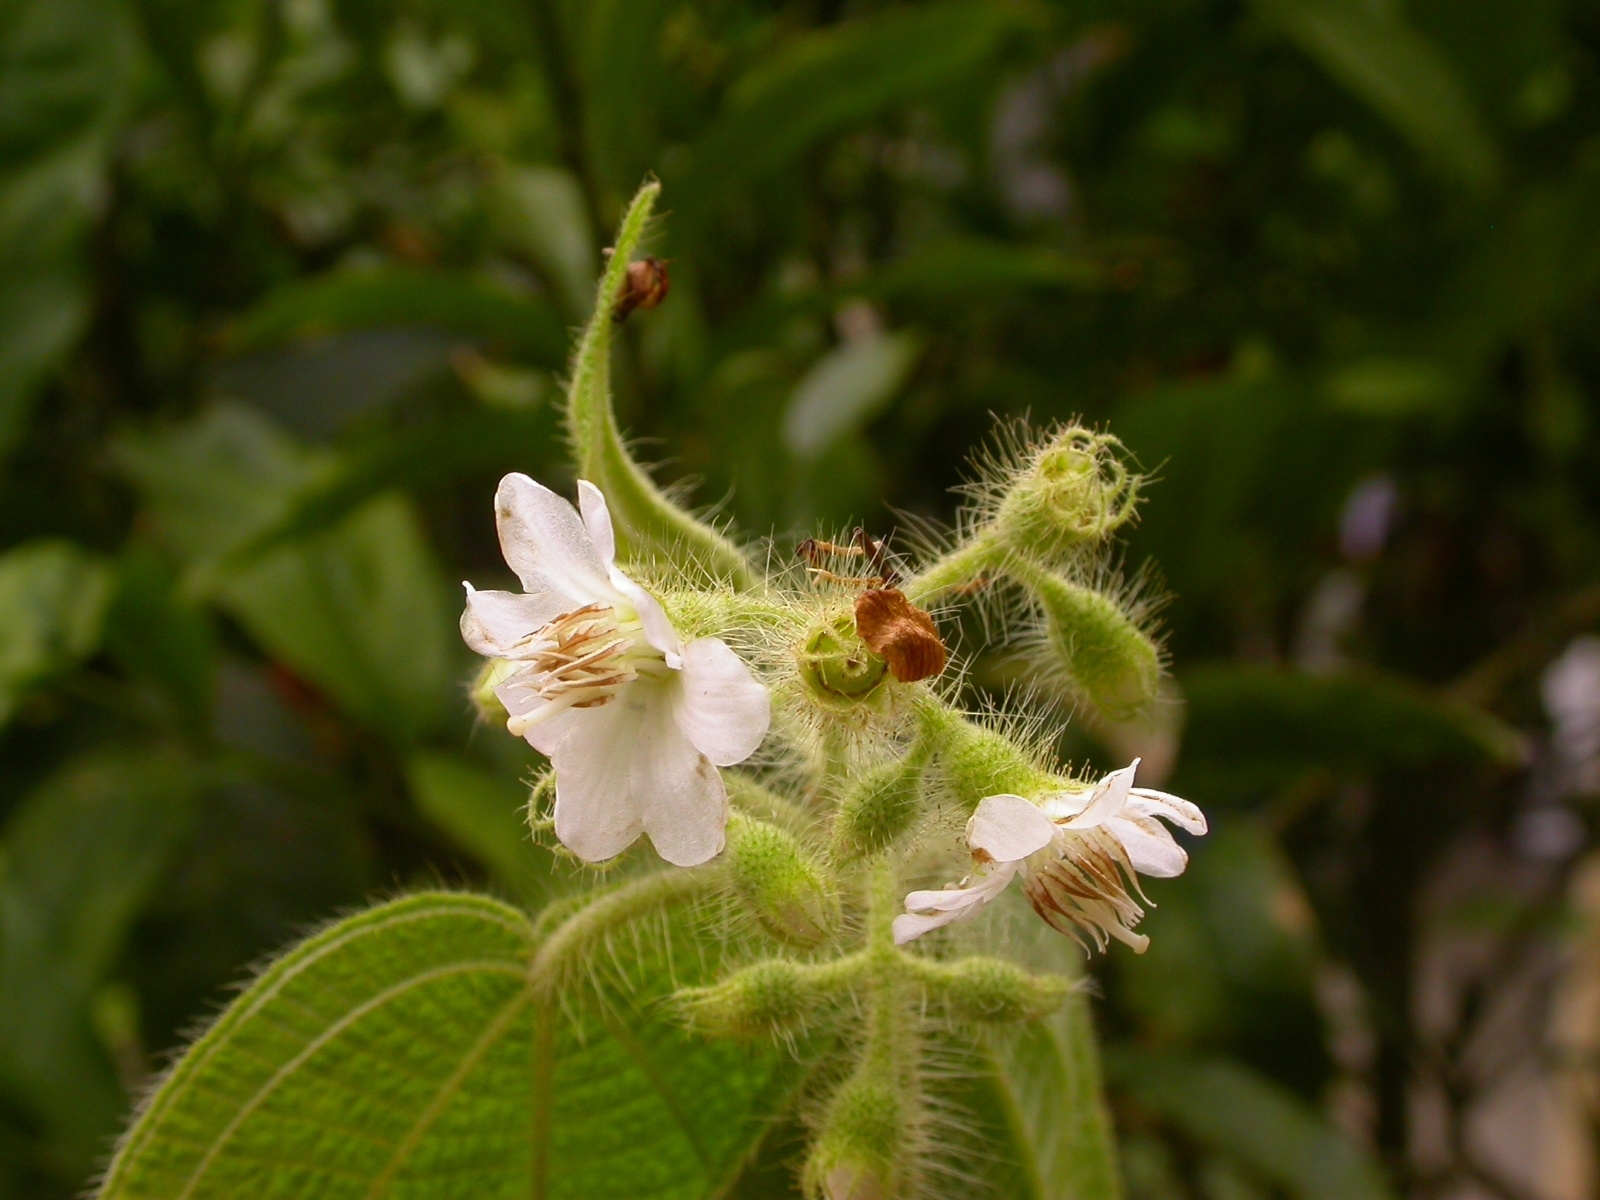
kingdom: Plantae
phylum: Tracheophyta
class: Magnoliopsida
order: Myrtales
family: Melastomataceae
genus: Miconia
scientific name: Miconia octona
